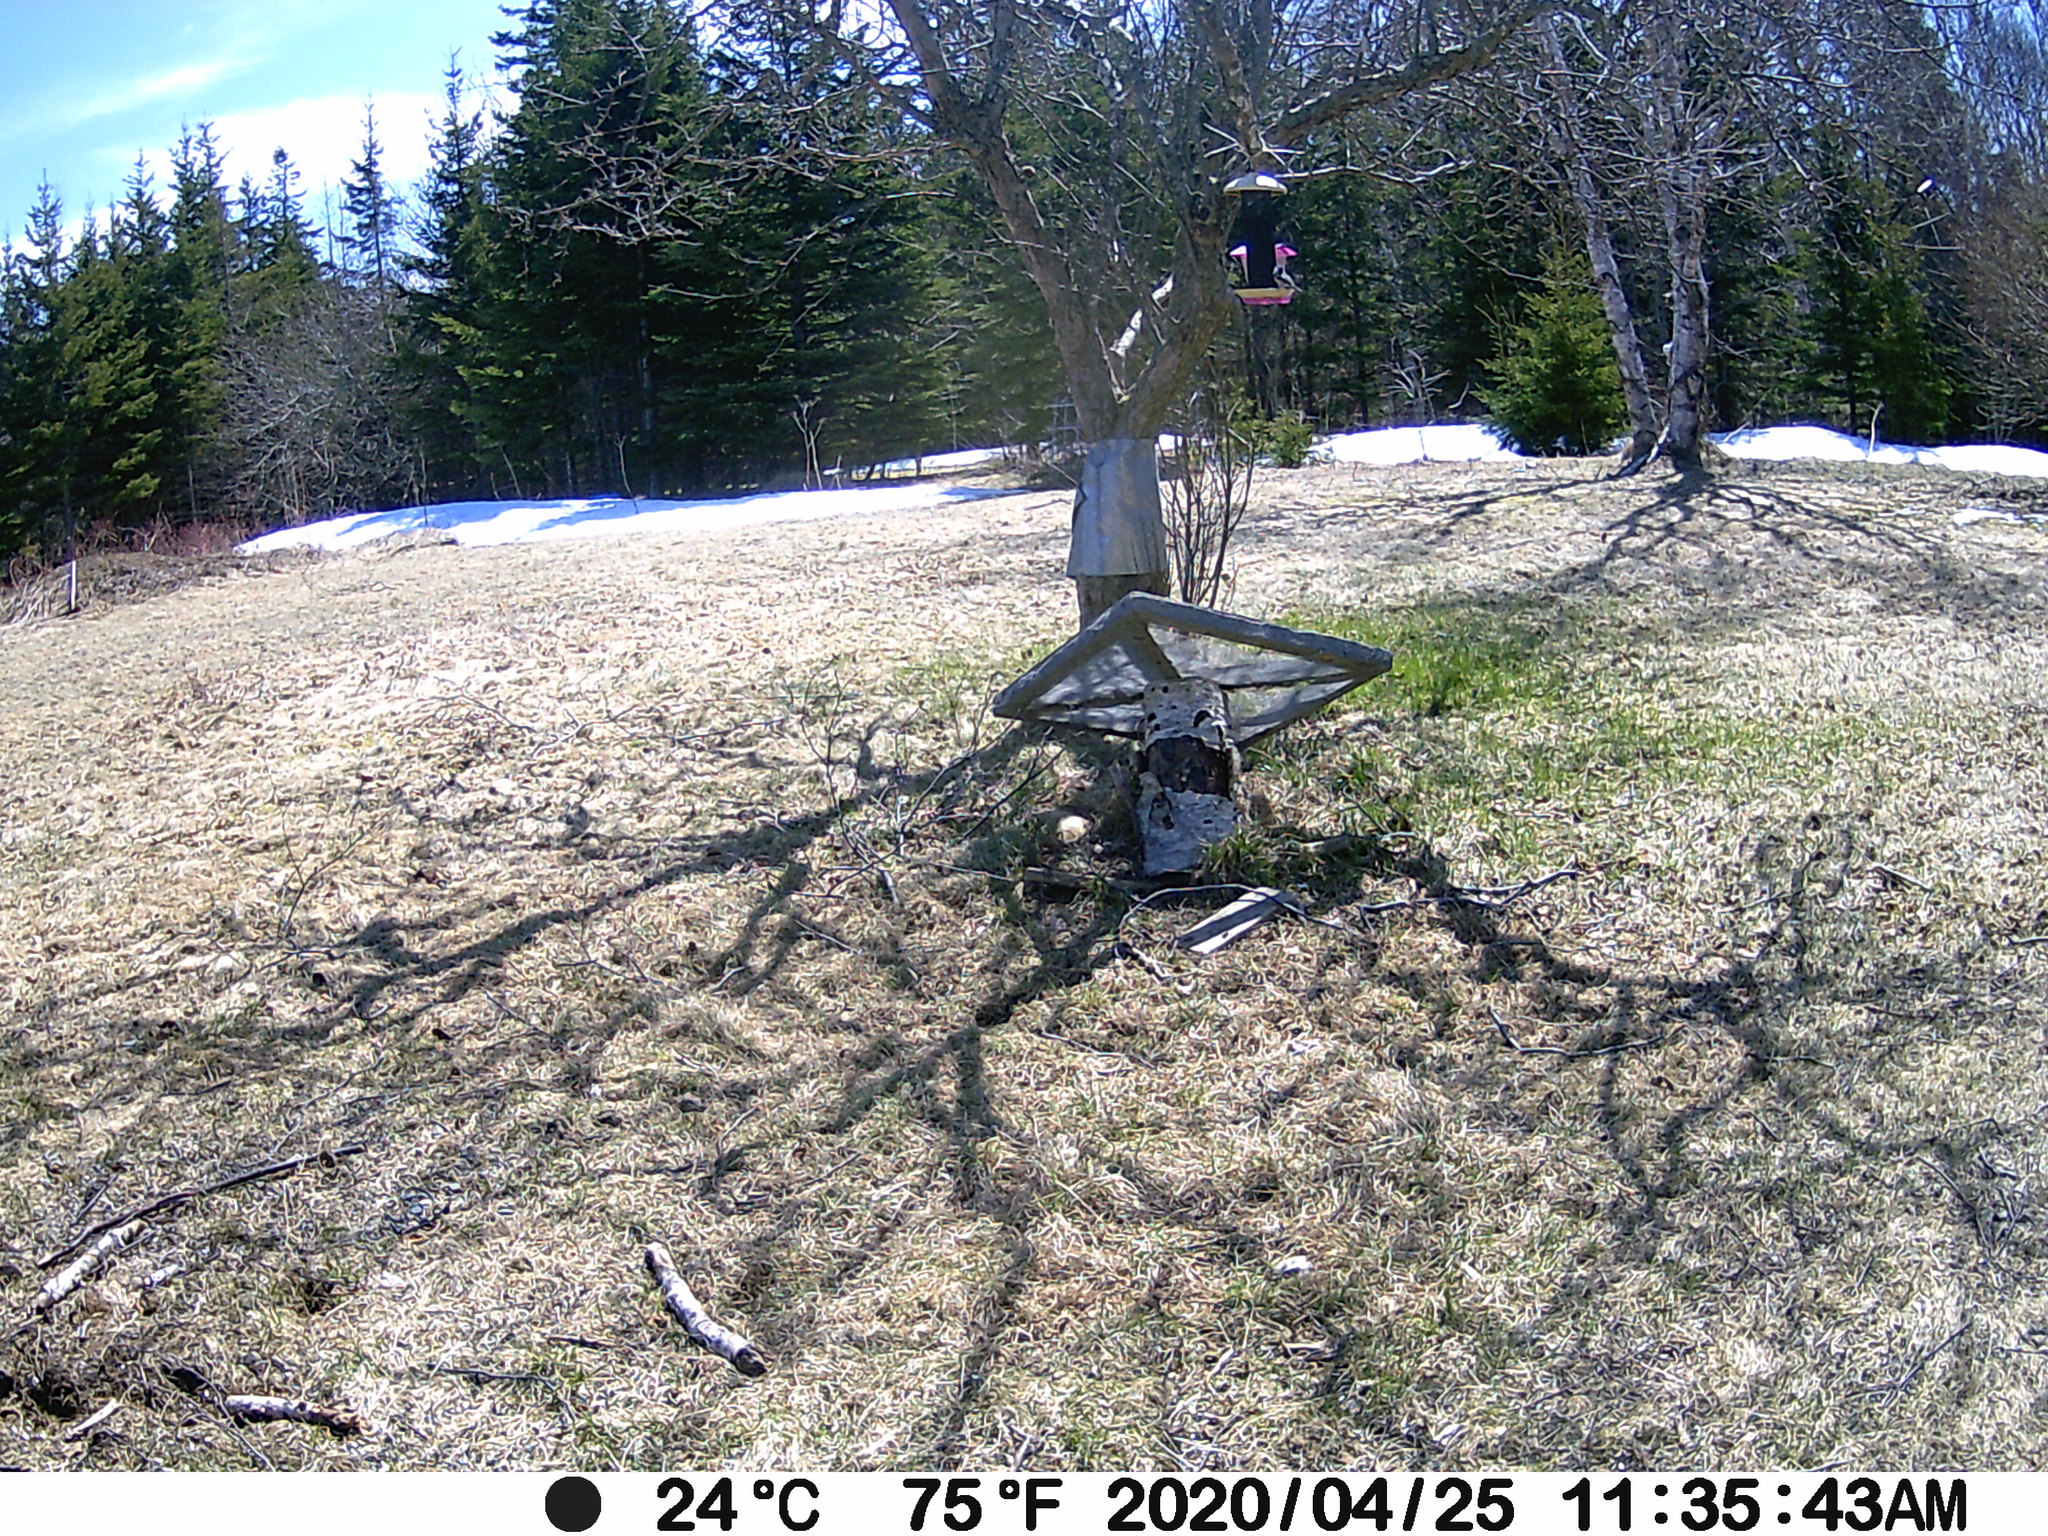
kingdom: Animalia
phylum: Chordata
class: Aves
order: Passeriformes
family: Passerellidae
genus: Junco
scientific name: Junco hyemalis
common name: Dark-eyed junco
